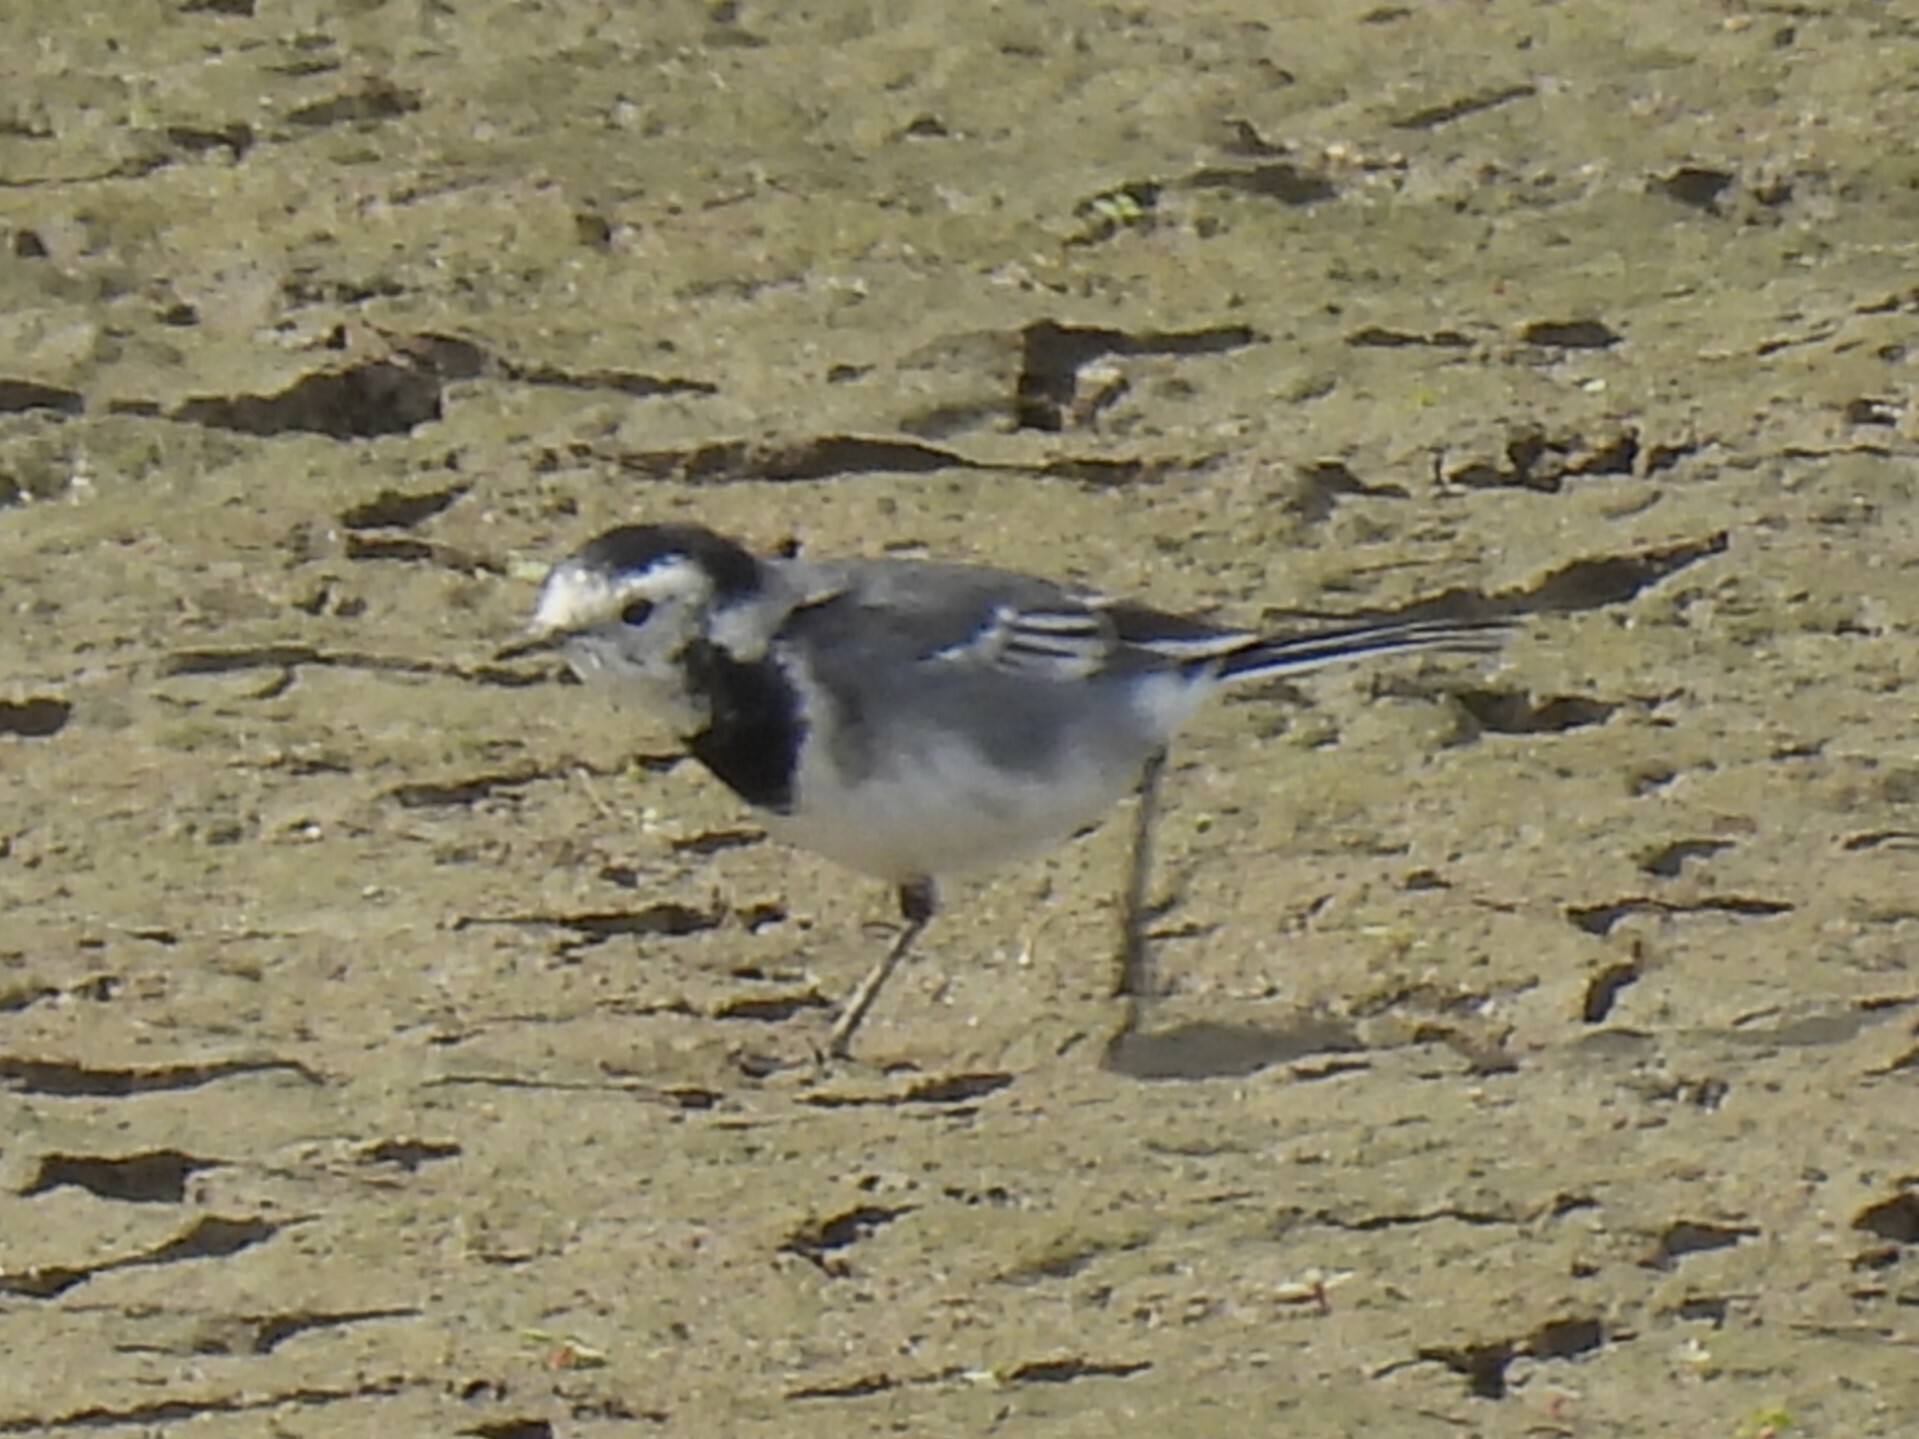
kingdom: Animalia
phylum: Chordata
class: Aves
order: Passeriformes
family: Motacillidae
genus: Motacilla
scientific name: Motacilla alba
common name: White wagtail
